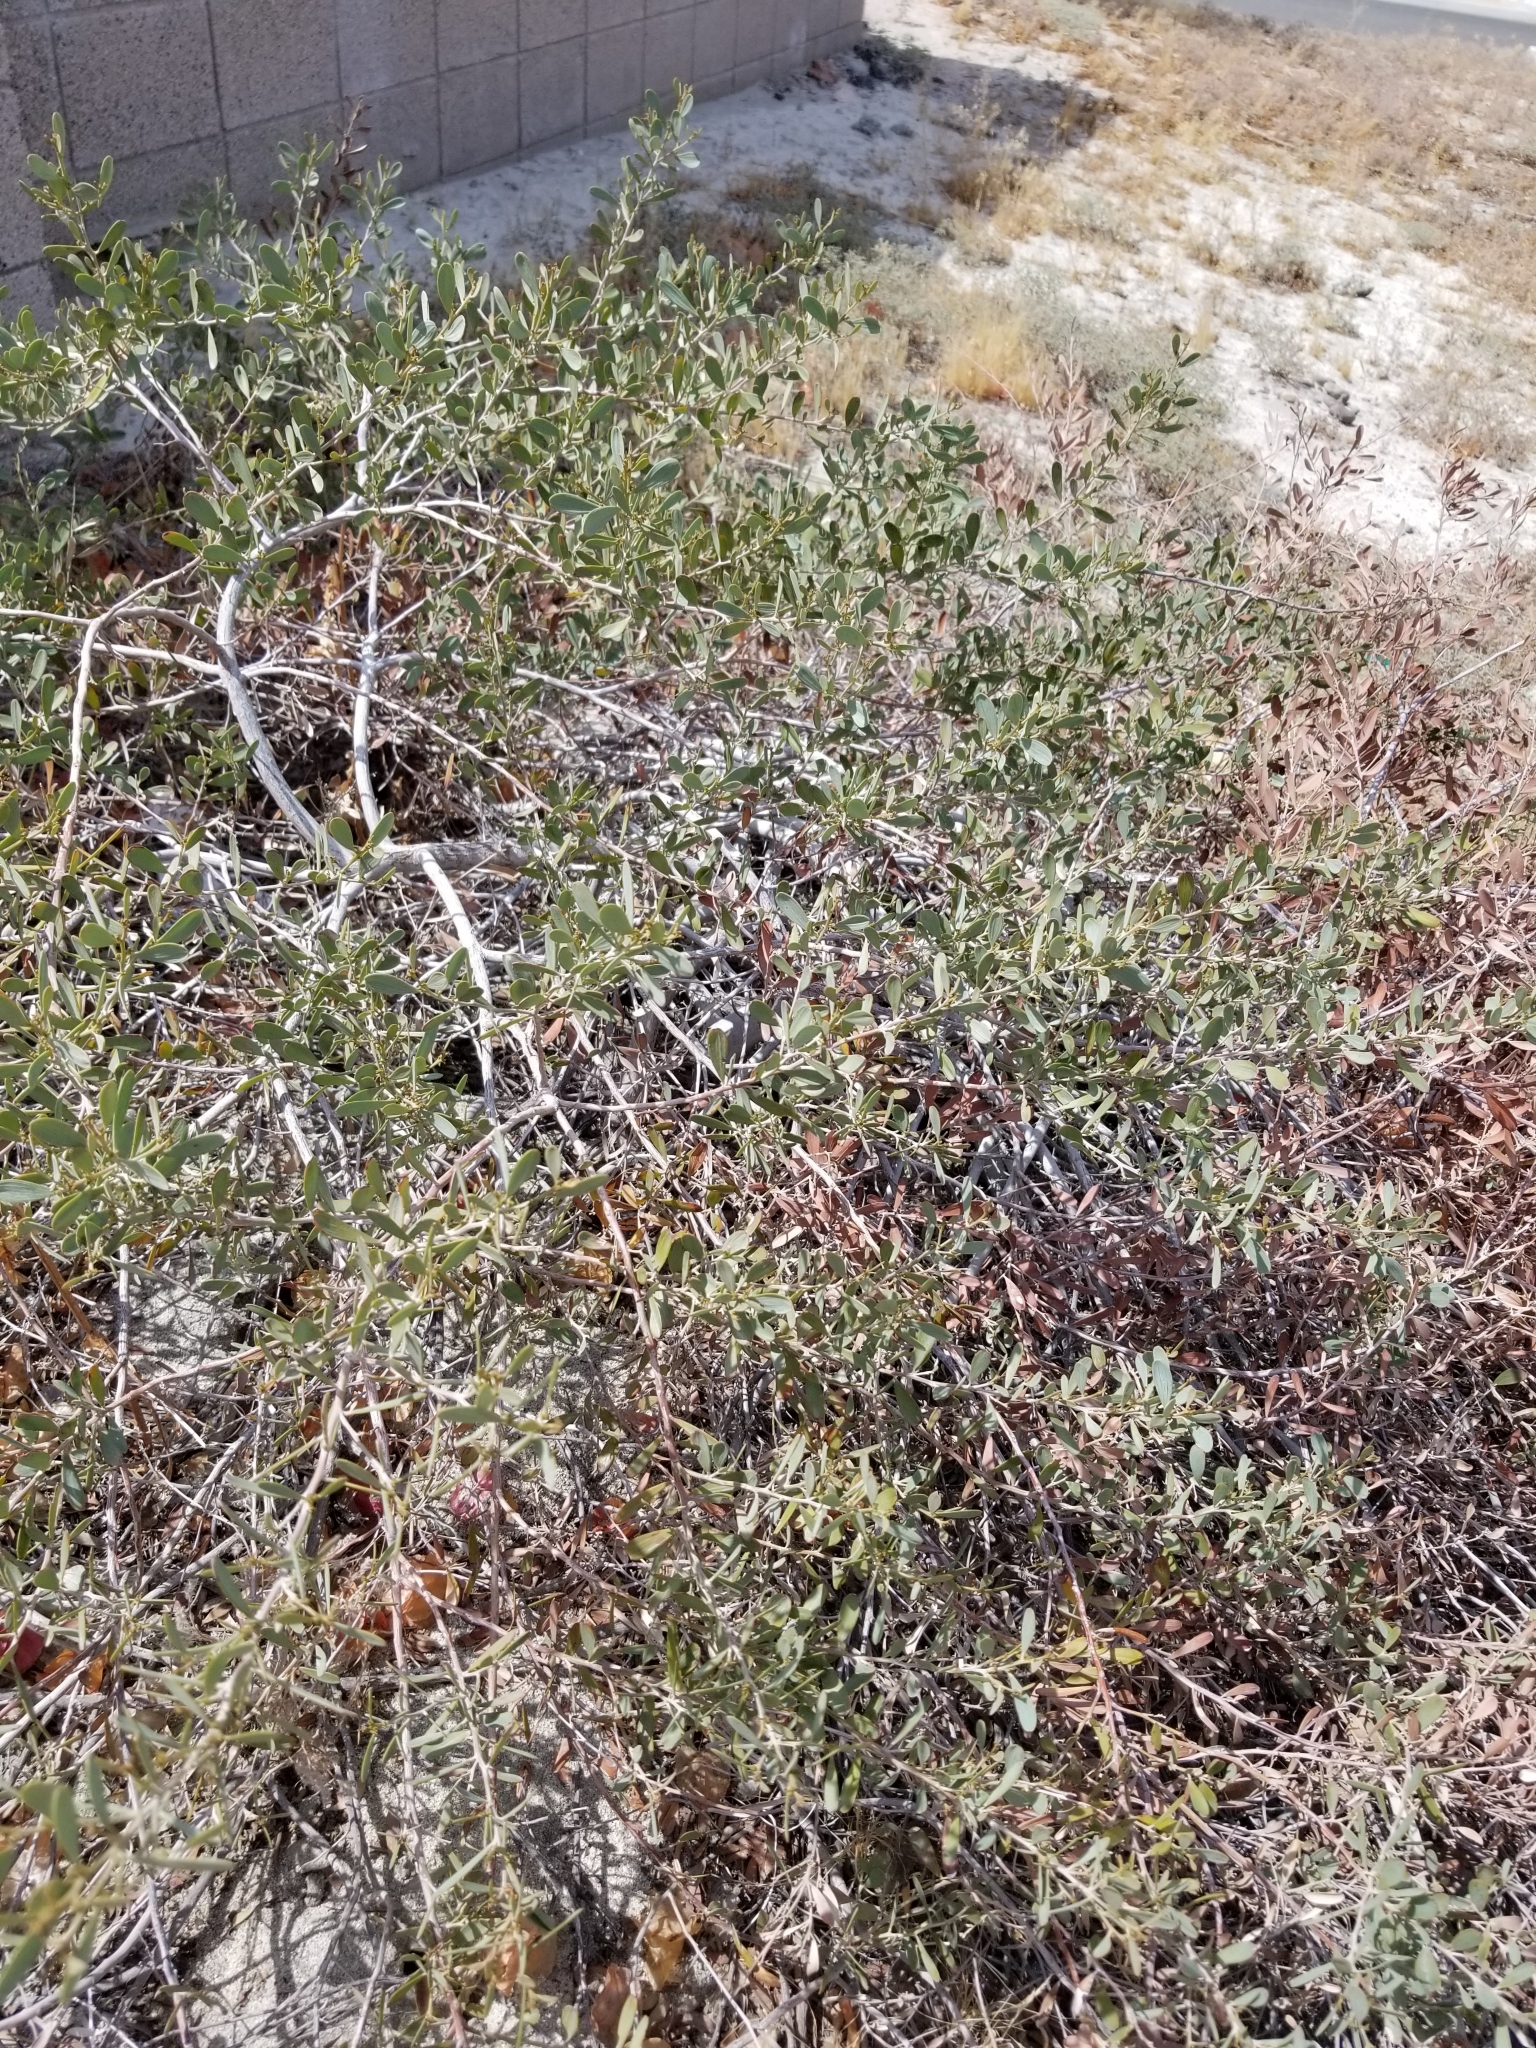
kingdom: Plantae
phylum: Tracheophyta
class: Magnoliopsida
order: Fabales
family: Fabaceae
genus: Acacia
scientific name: Acacia redolens
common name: Bank catclaw
